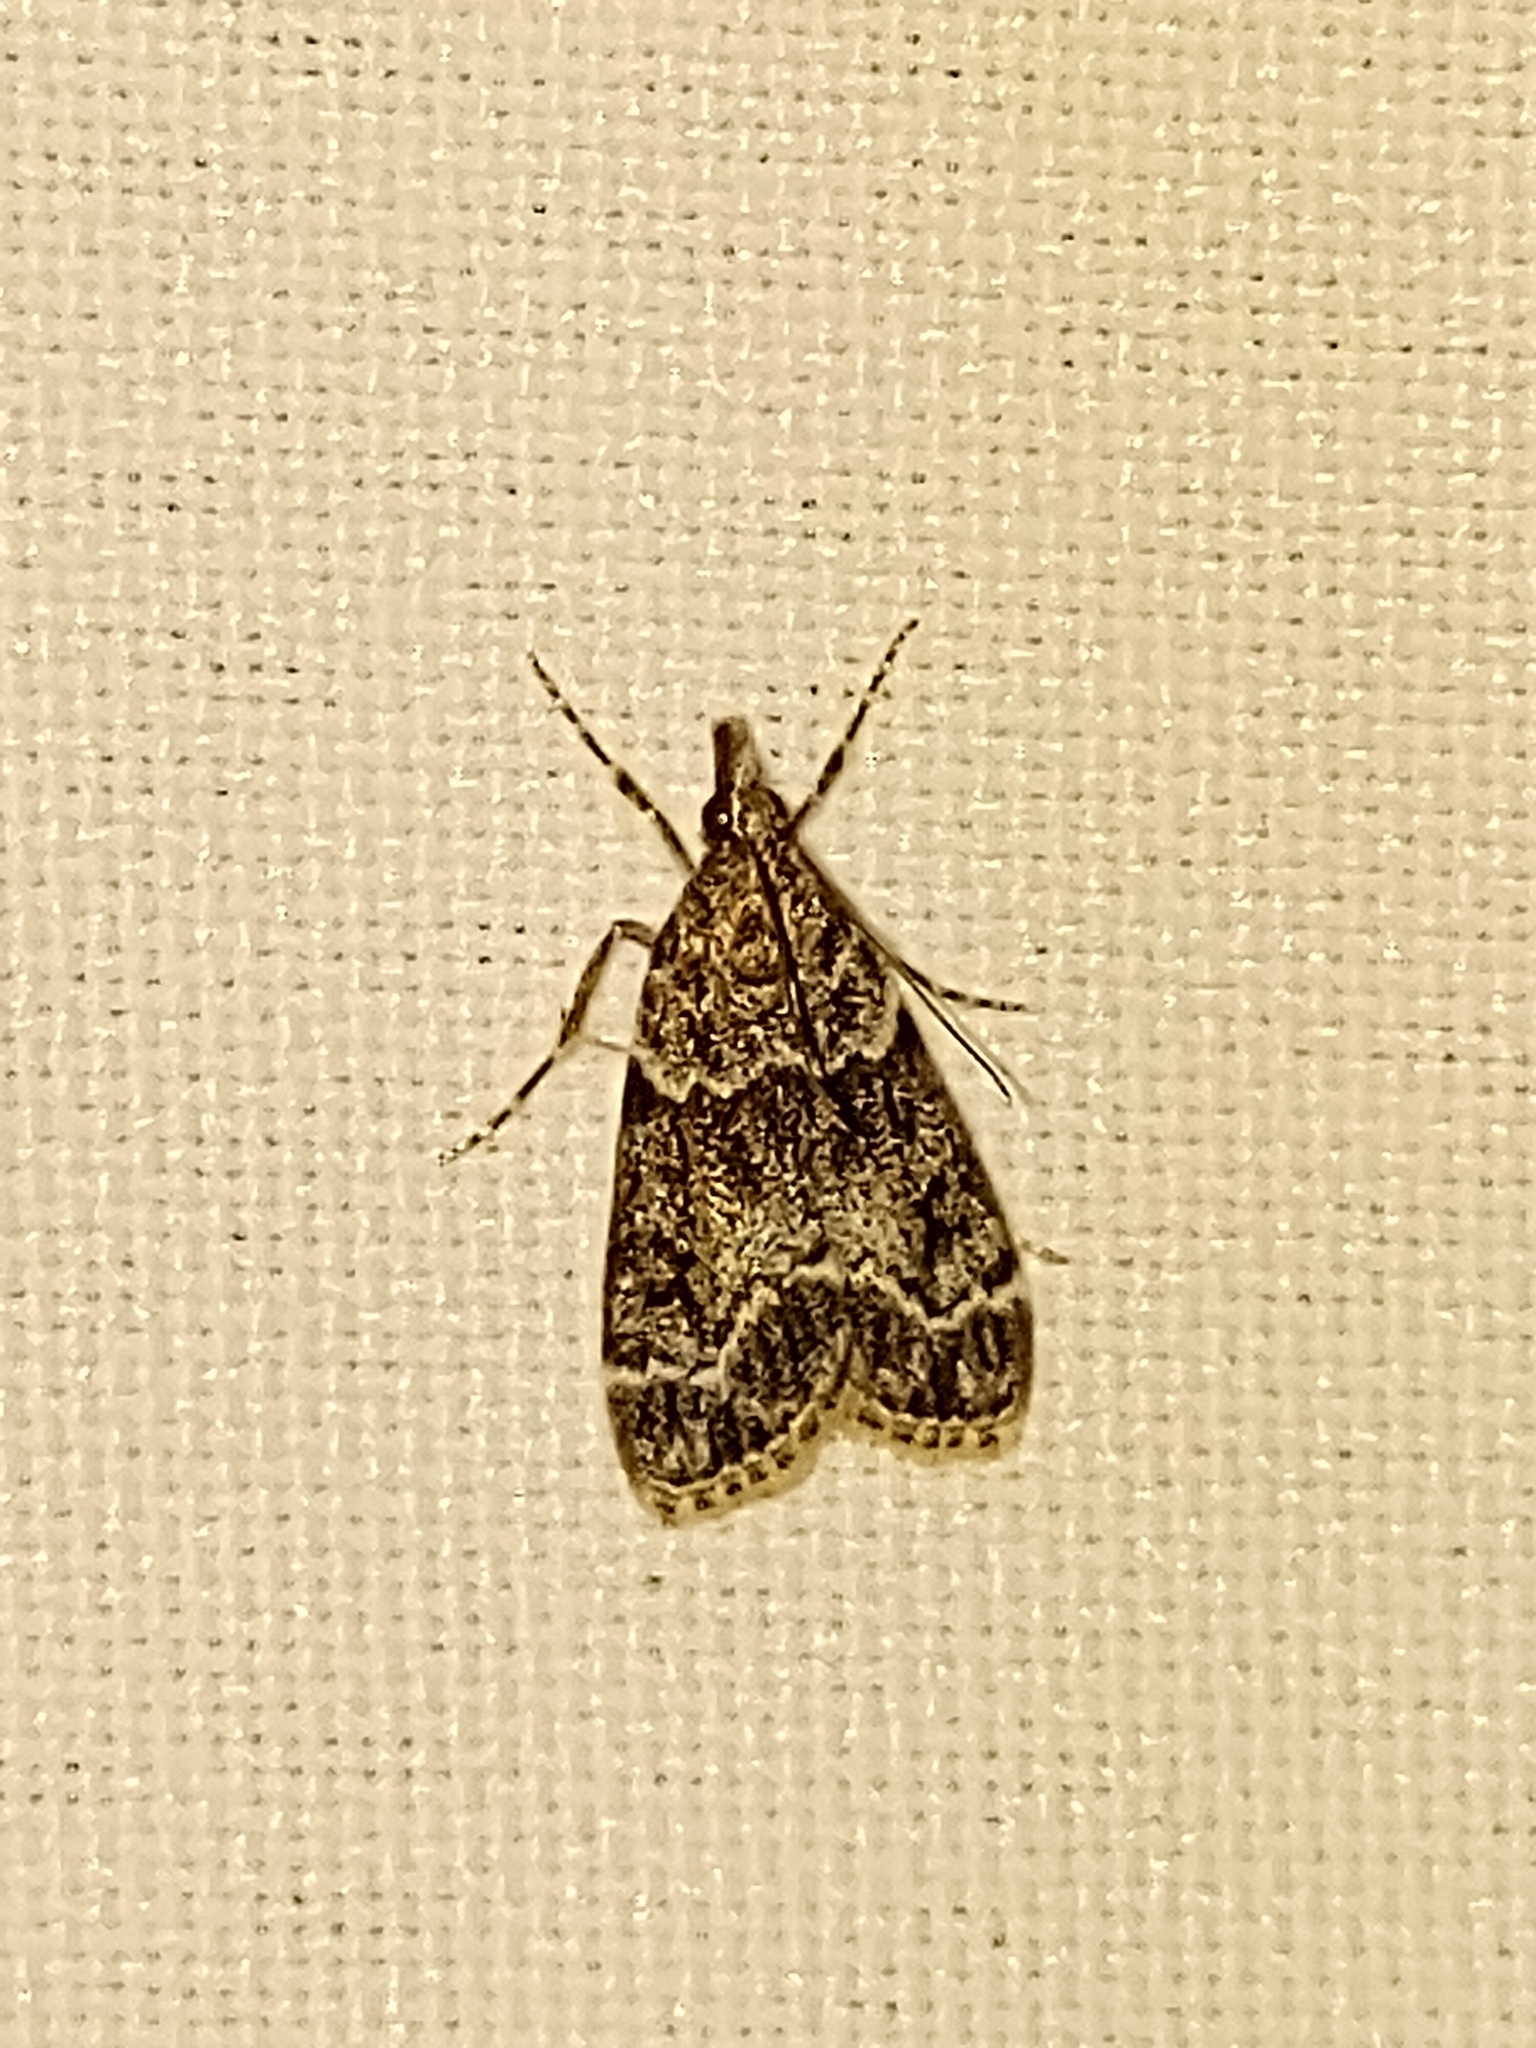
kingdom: Animalia
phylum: Arthropoda
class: Insecta
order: Lepidoptera
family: Crambidae
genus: Eudonia
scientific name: Eudonia mercurella
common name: Small grey
